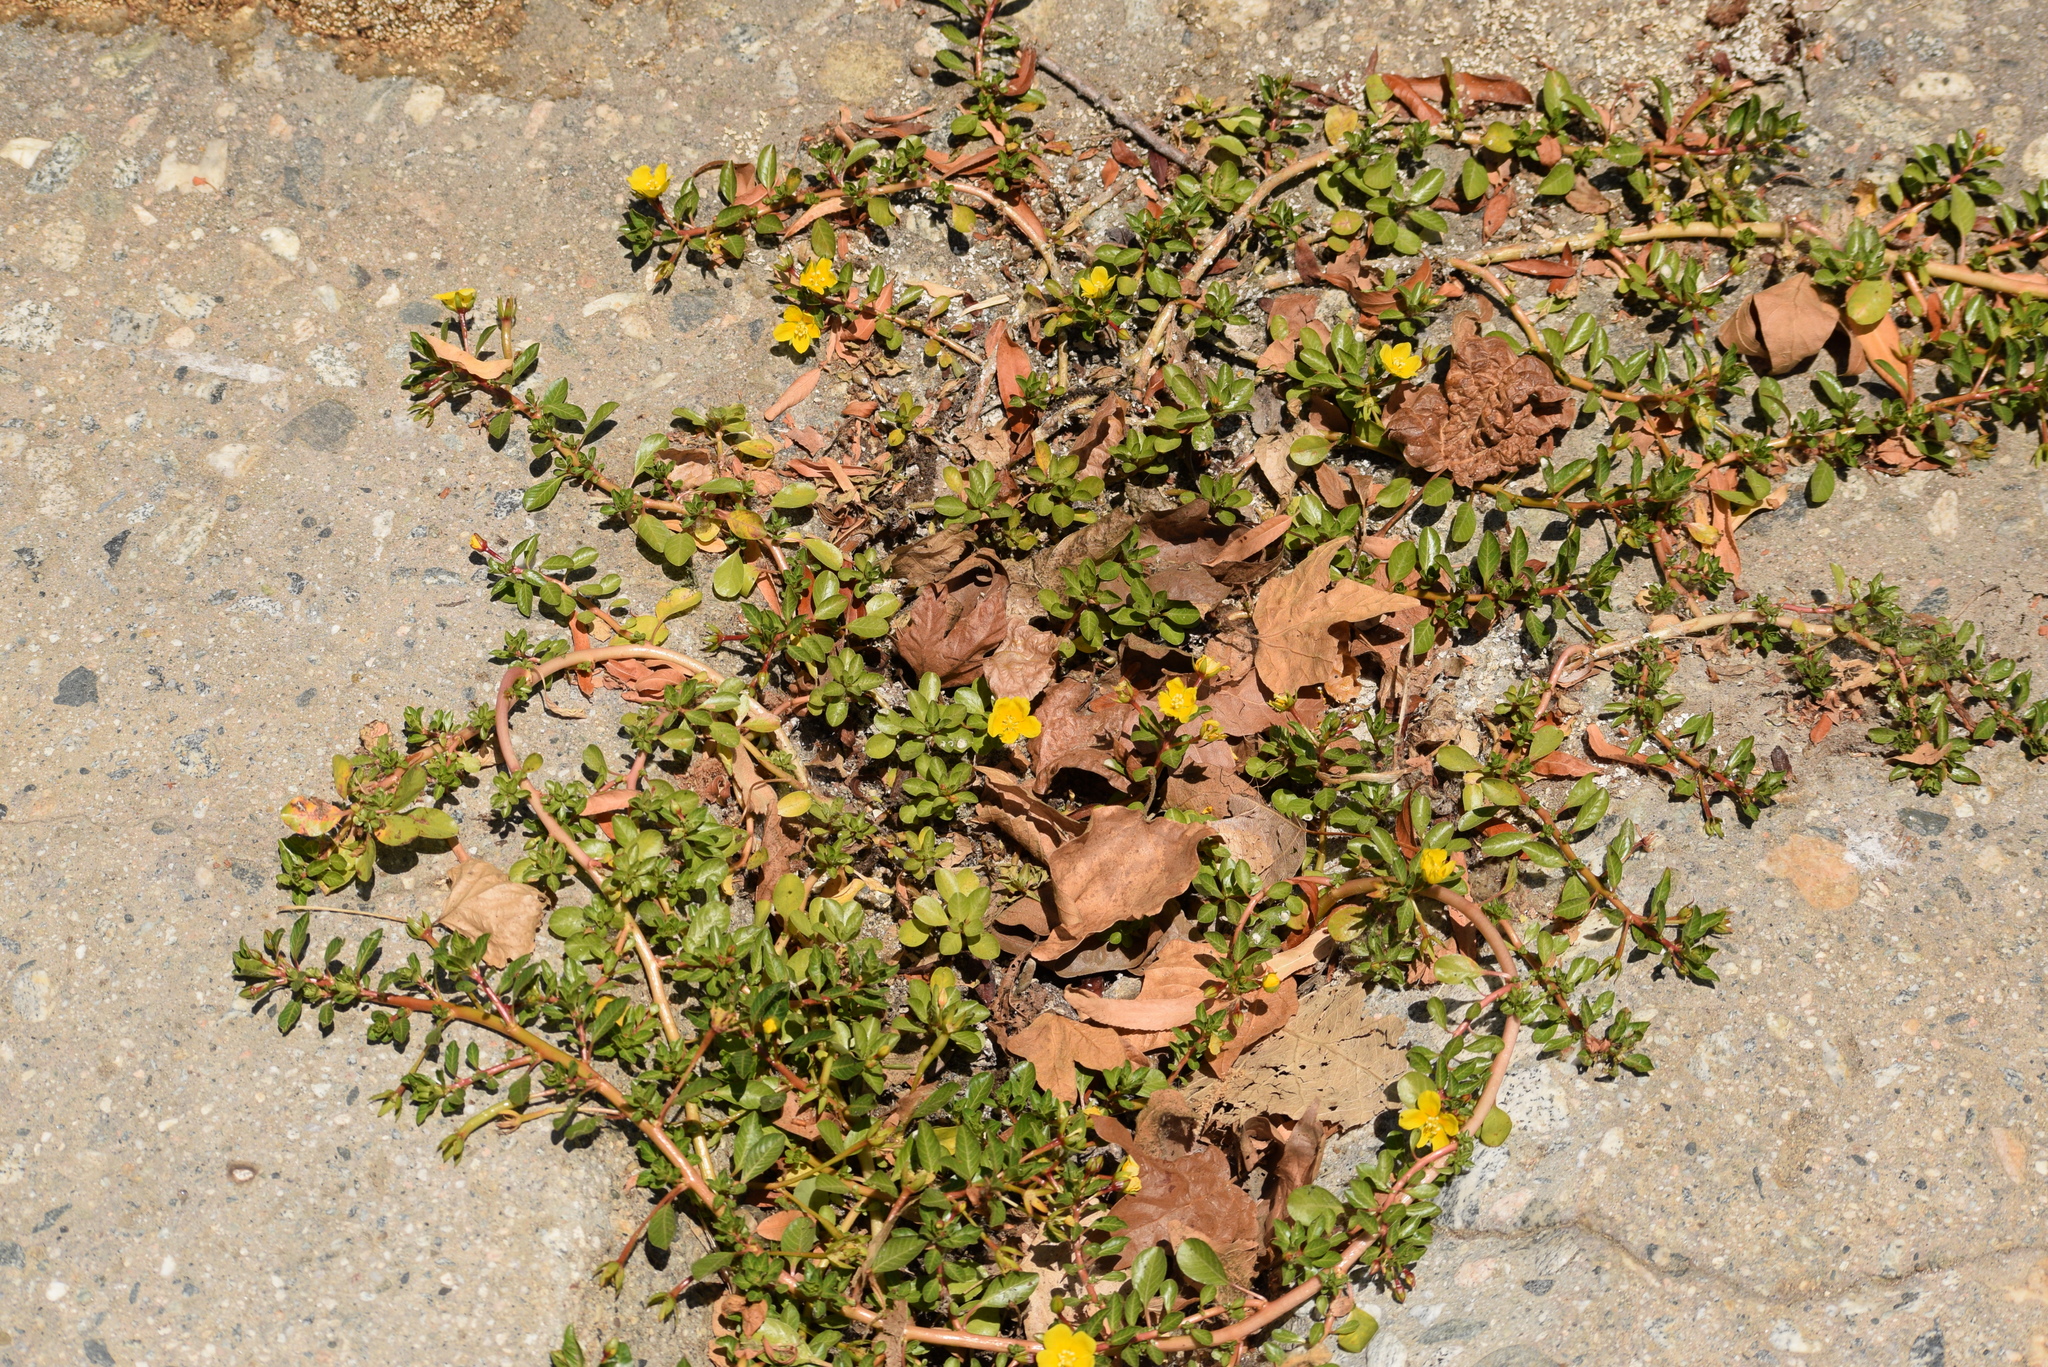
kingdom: Plantae
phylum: Tracheophyta
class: Magnoliopsida
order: Myrtales
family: Onagraceae
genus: Ludwigia
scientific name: Ludwigia peploides
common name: Floating primrose-willow
